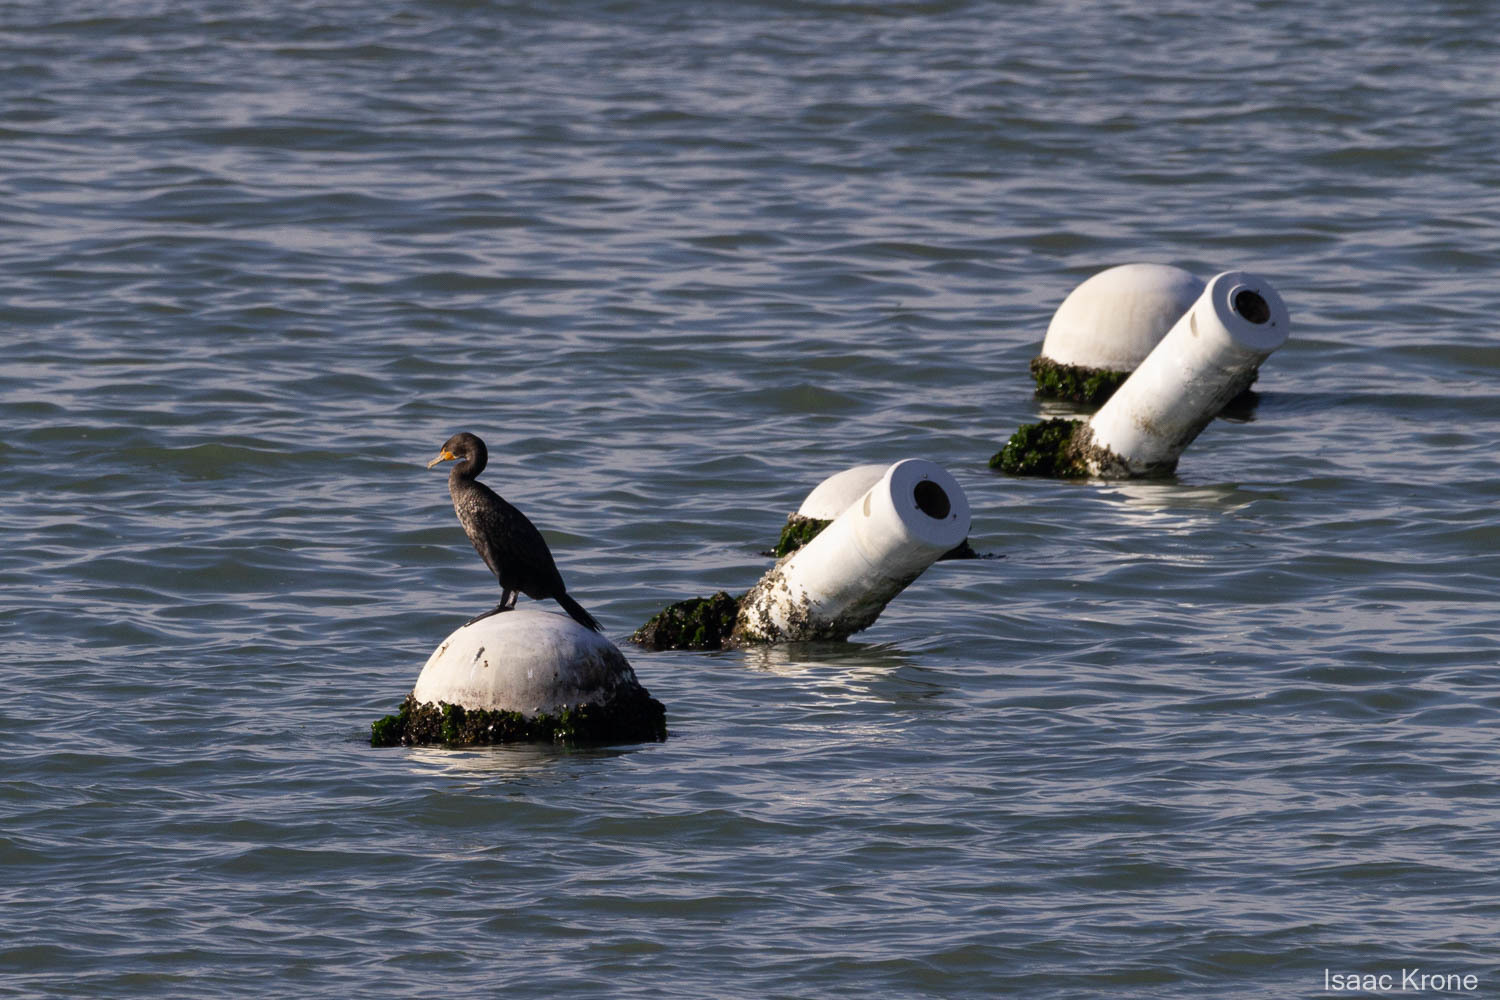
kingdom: Animalia
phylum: Chordata
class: Aves
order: Suliformes
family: Phalacrocoracidae
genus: Phalacrocorax
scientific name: Phalacrocorax auritus
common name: Double-crested cormorant
